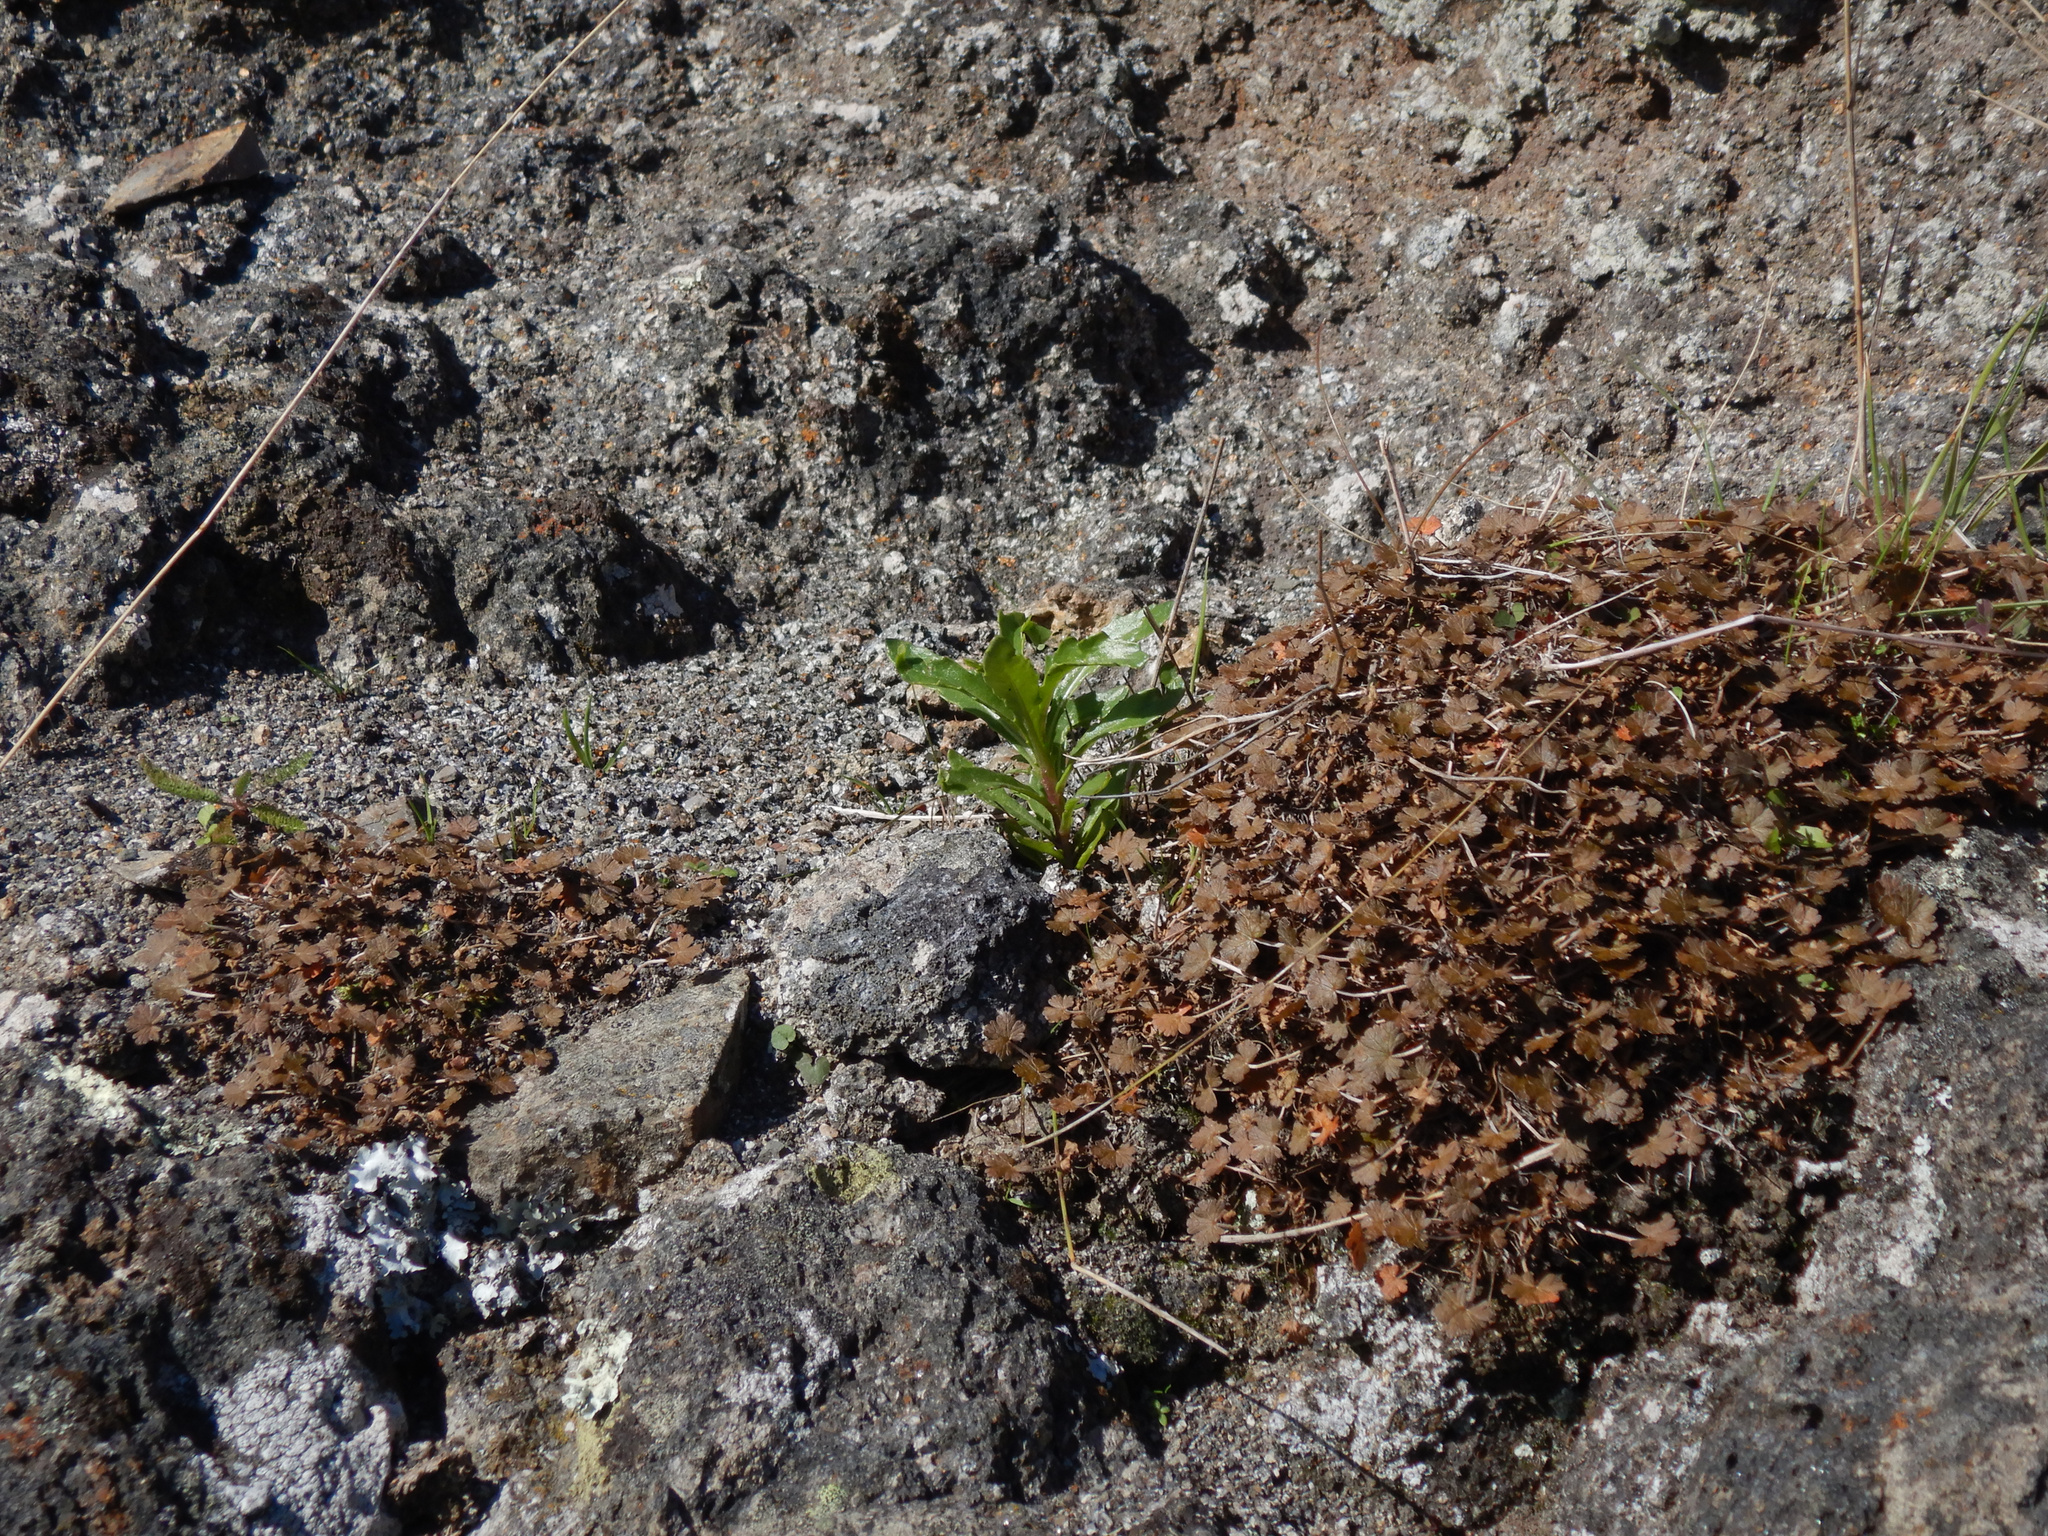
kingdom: Plantae
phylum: Tracheophyta
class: Magnoliopsida
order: Geraniales
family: Geraniaceae
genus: Geranium
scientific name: Geranium brevicaule
